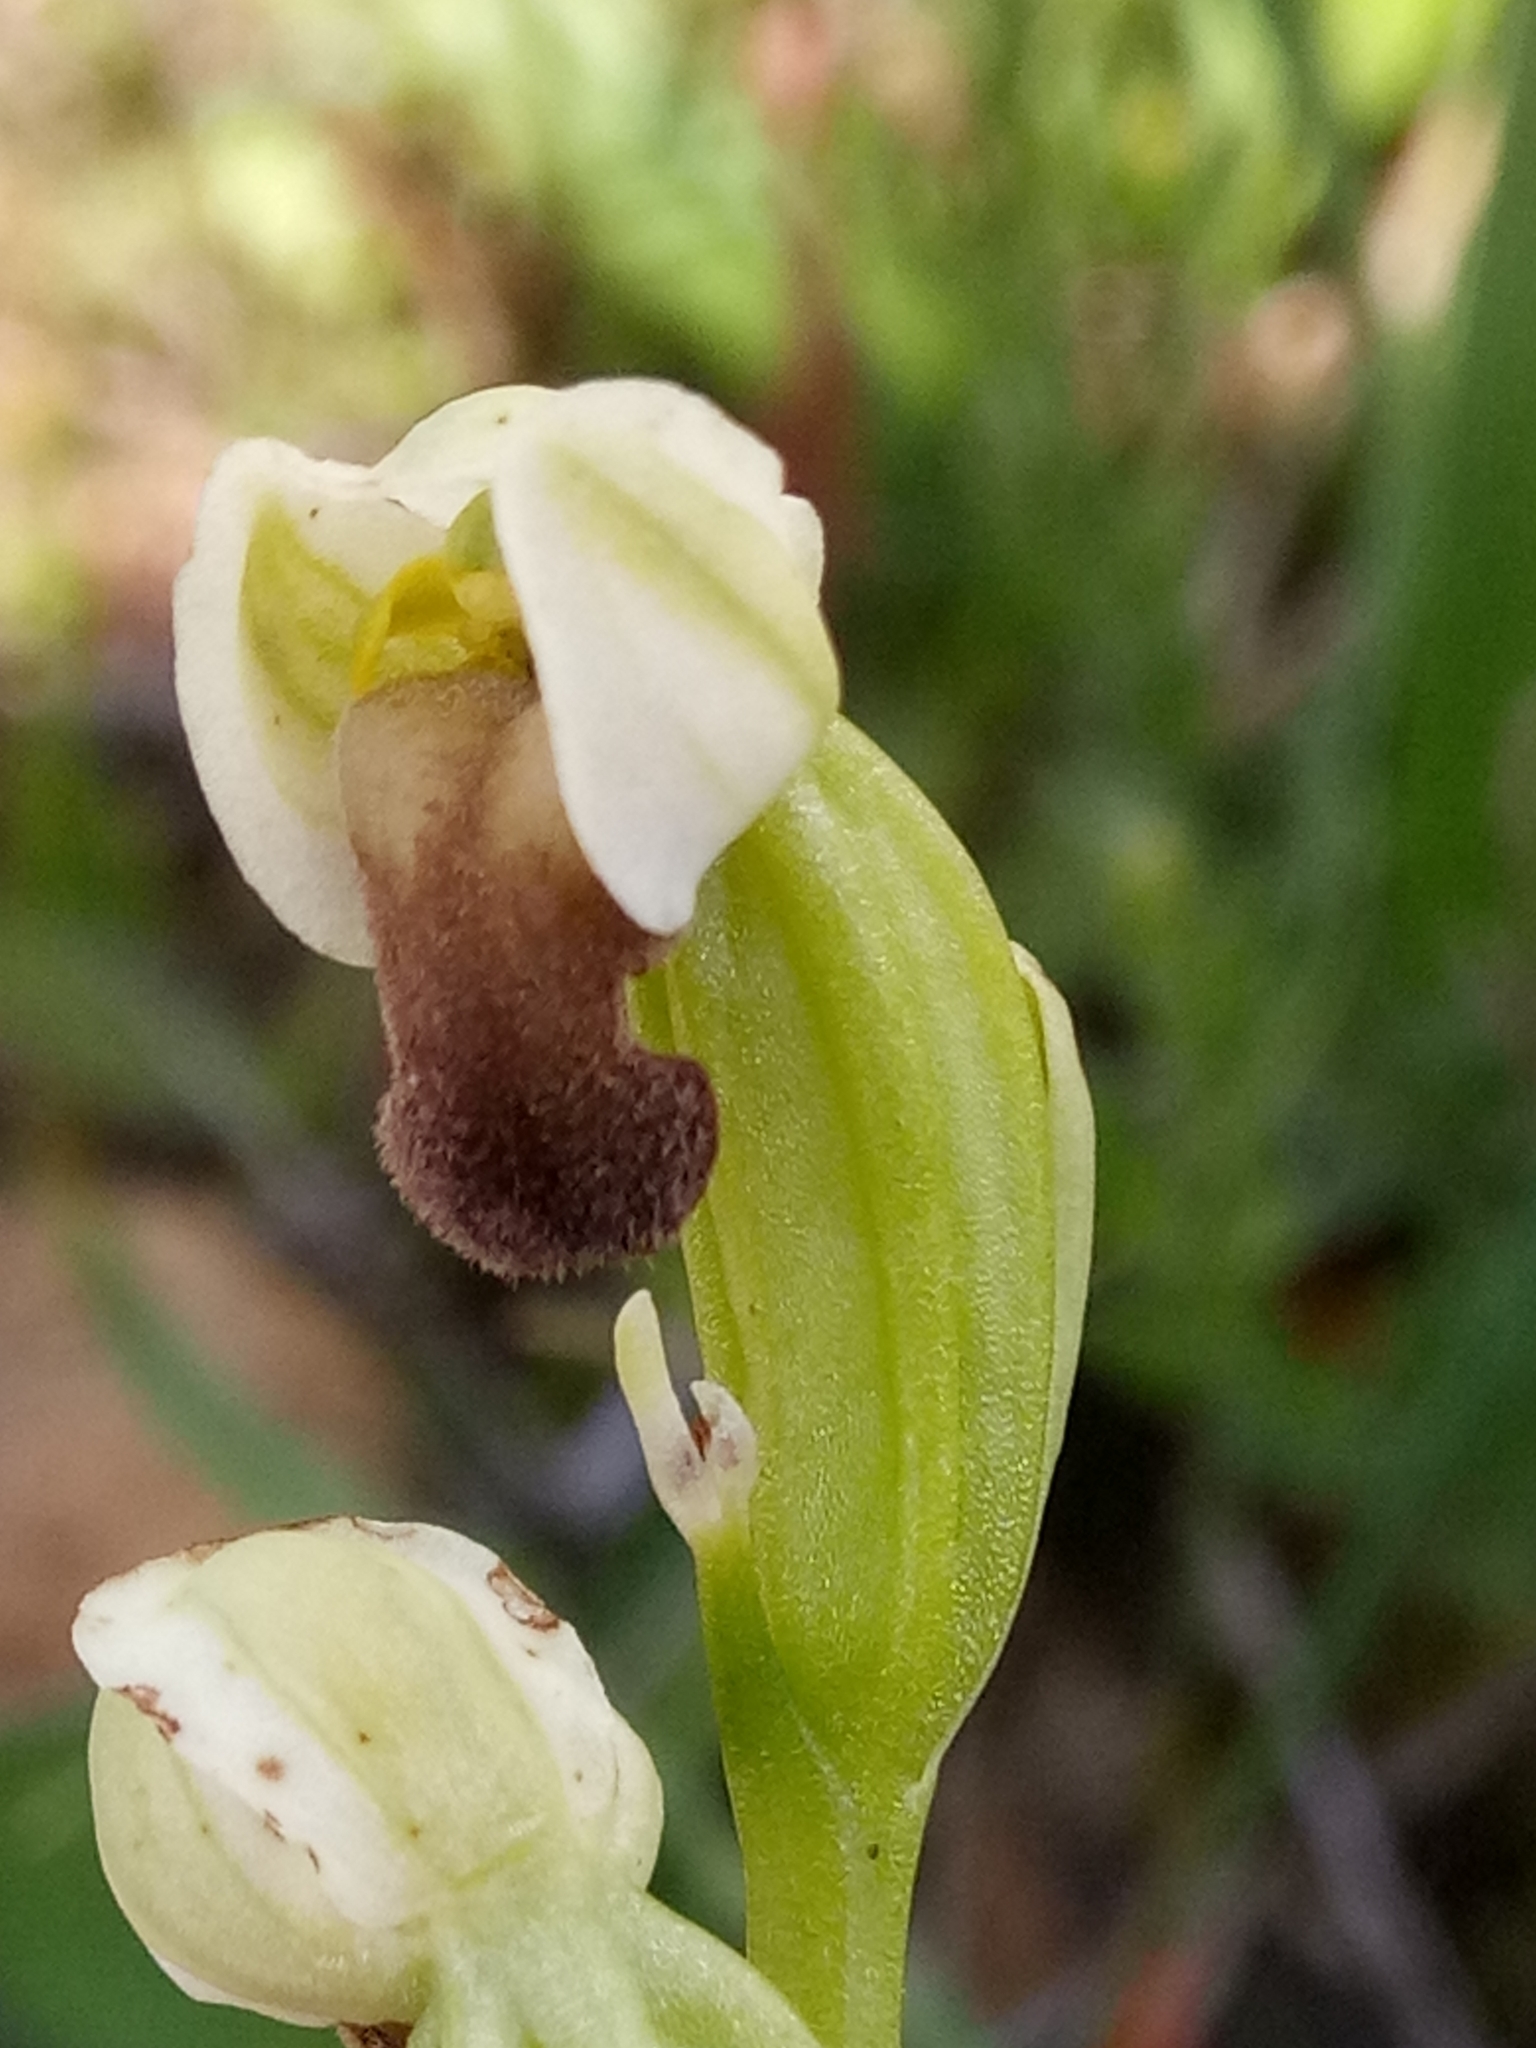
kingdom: Plantae
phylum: Tracheophyta
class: Liliopsida
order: Asparagales
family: Orchidaceae
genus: Ophrys
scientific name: Ophrys fusca
